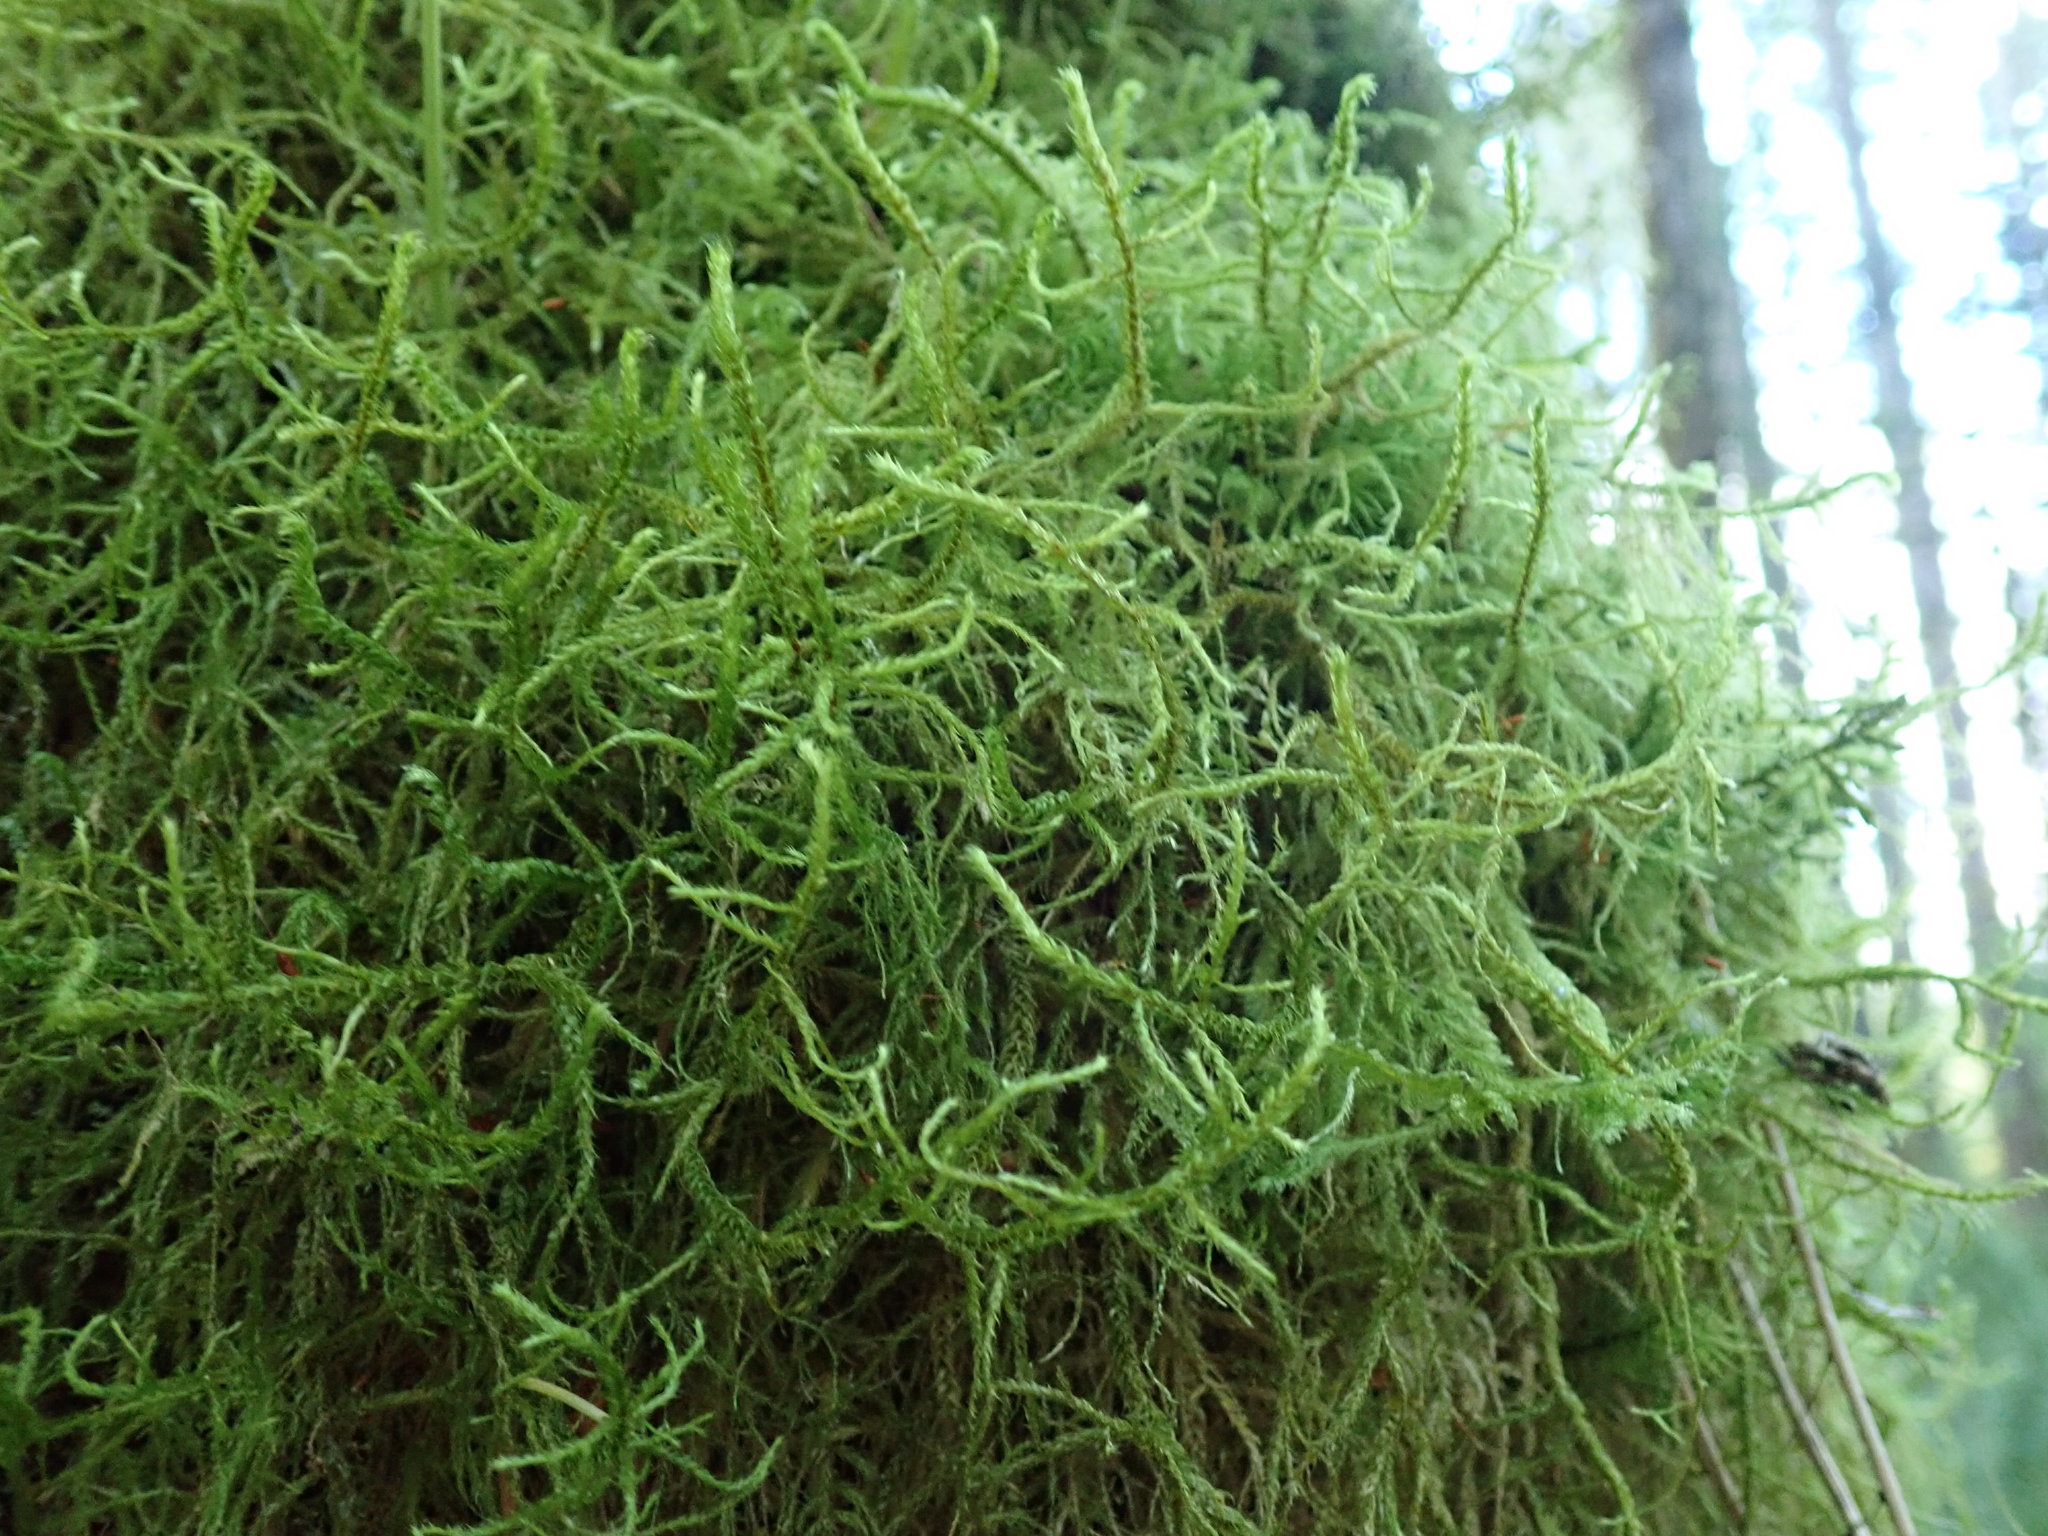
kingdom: Plantae
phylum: Bryophyta
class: Bryopsida
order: Hypnales
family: Antitrichiaceae
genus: Antitrichia
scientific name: Antitrichia curtipendula
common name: Pendulous wing-moss
